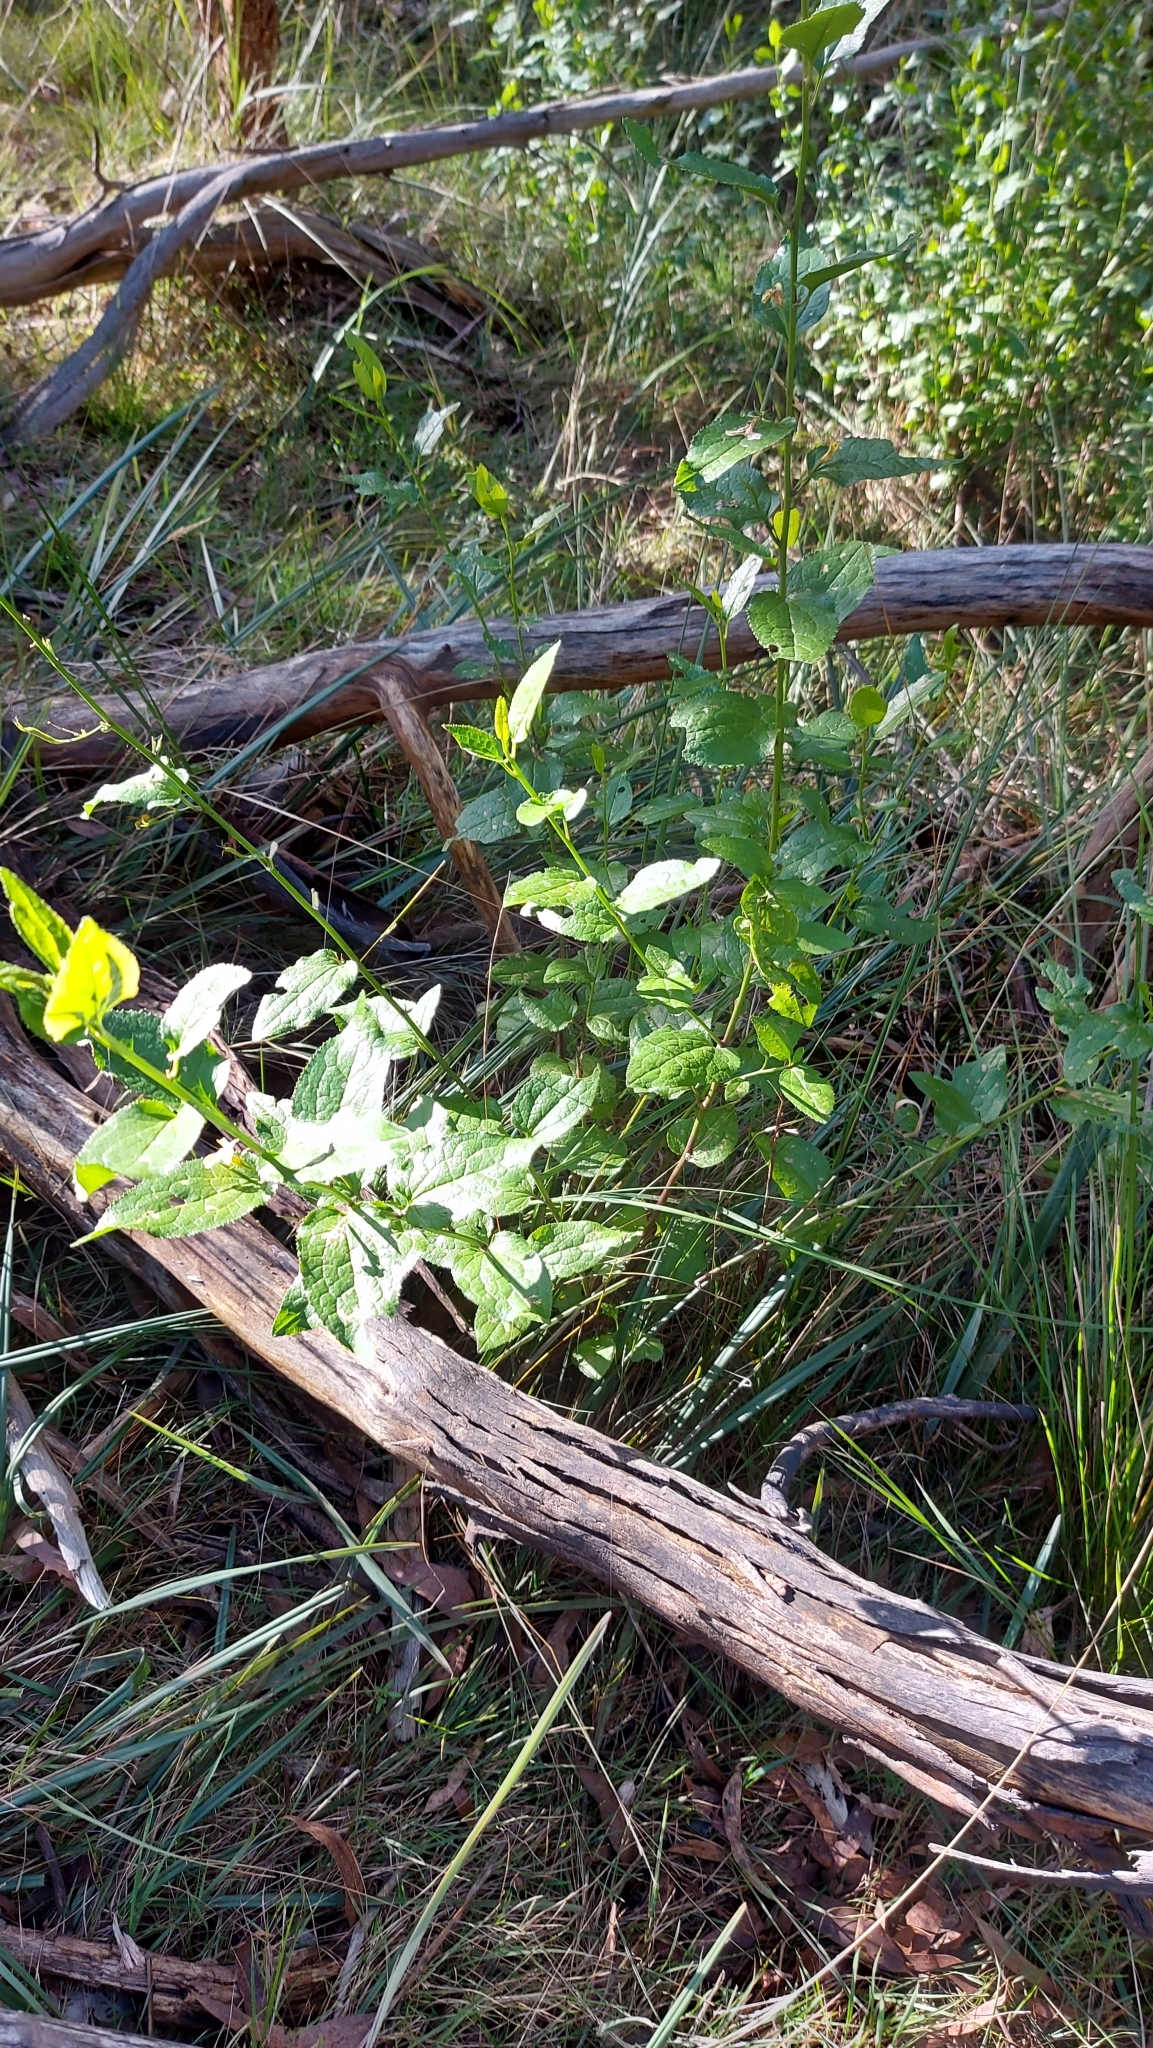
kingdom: Plantae
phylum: Tracheophyta
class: Magnoliopsida
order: Asterales
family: Goodeniaceae
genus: Goodenia
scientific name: Goodenia ovata
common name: Hop goodenia
